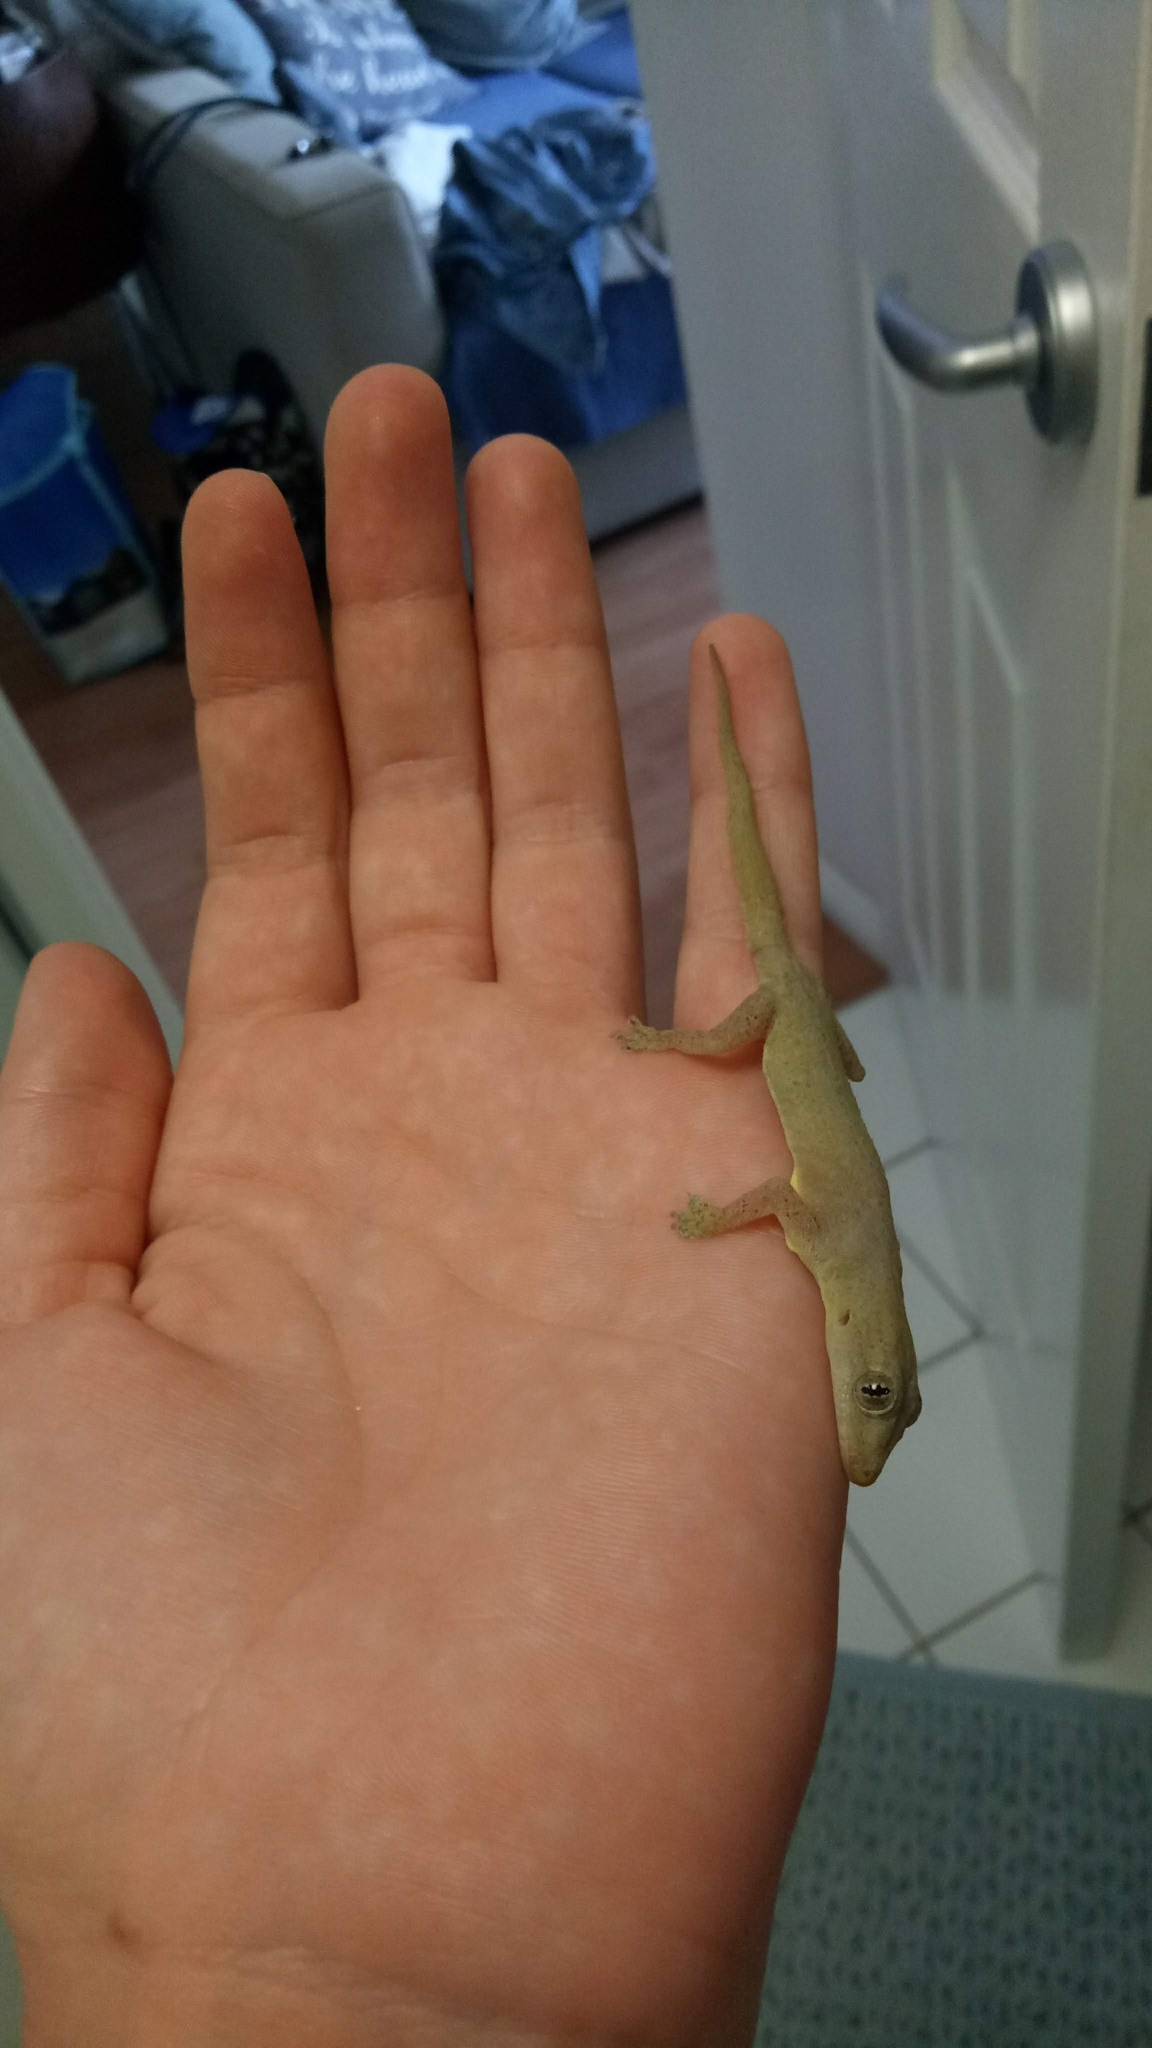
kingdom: Animalia
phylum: Chordata
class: Squamata
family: Gekkonidae
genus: Hemidactylus
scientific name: Hemidactylus frenatus
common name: Common house gecko
